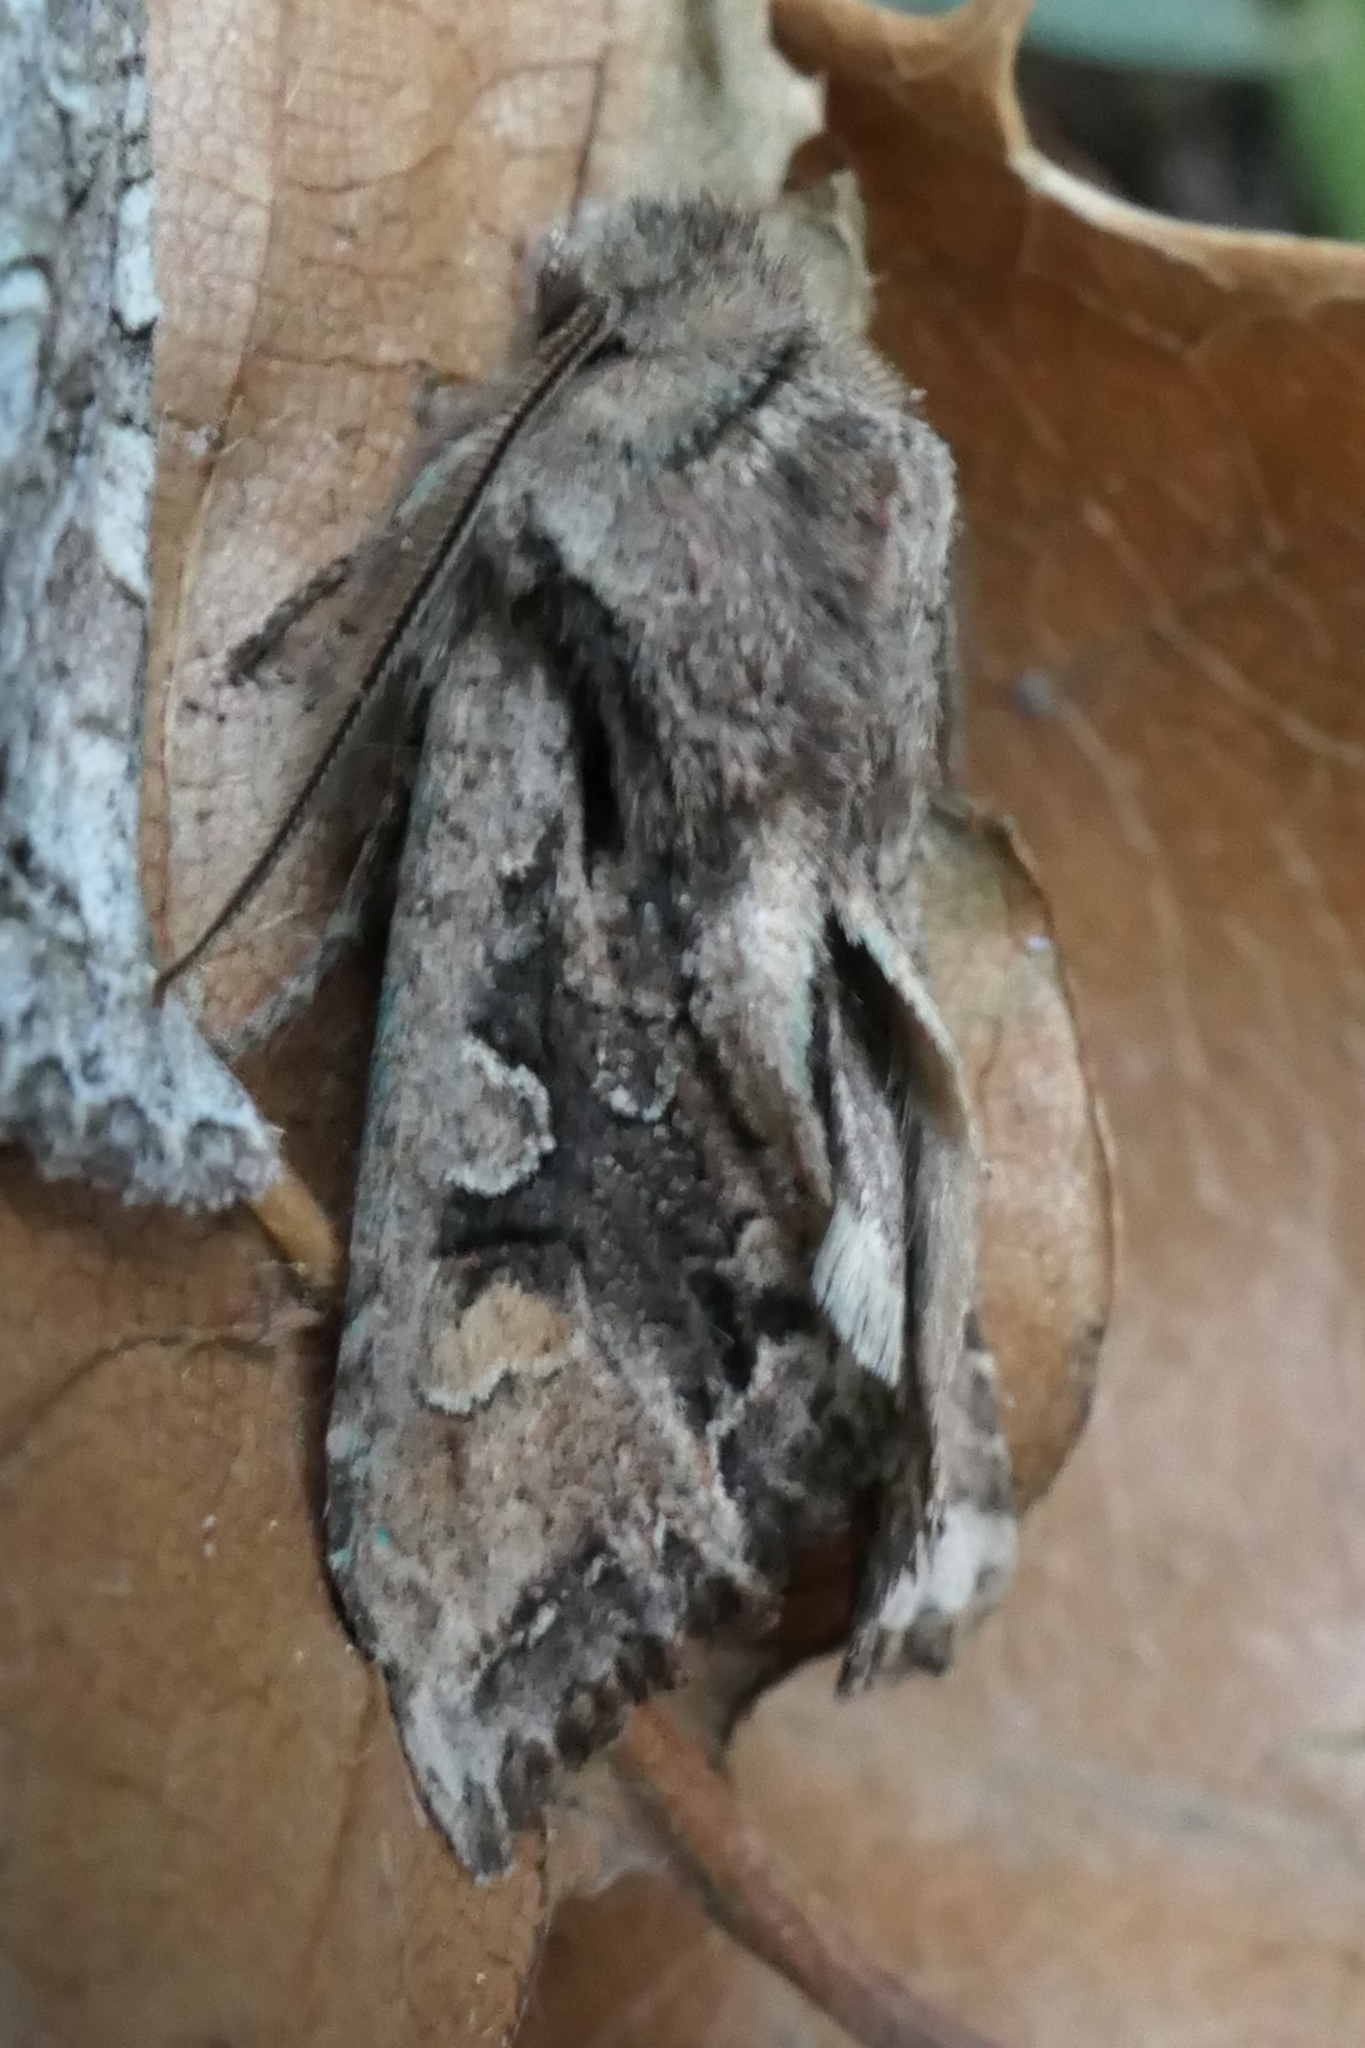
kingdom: Animalia
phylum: Arthropoda
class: Insecta
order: Lepidoptera
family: Noctuidae
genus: Ichneutica
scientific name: Ichneutica
